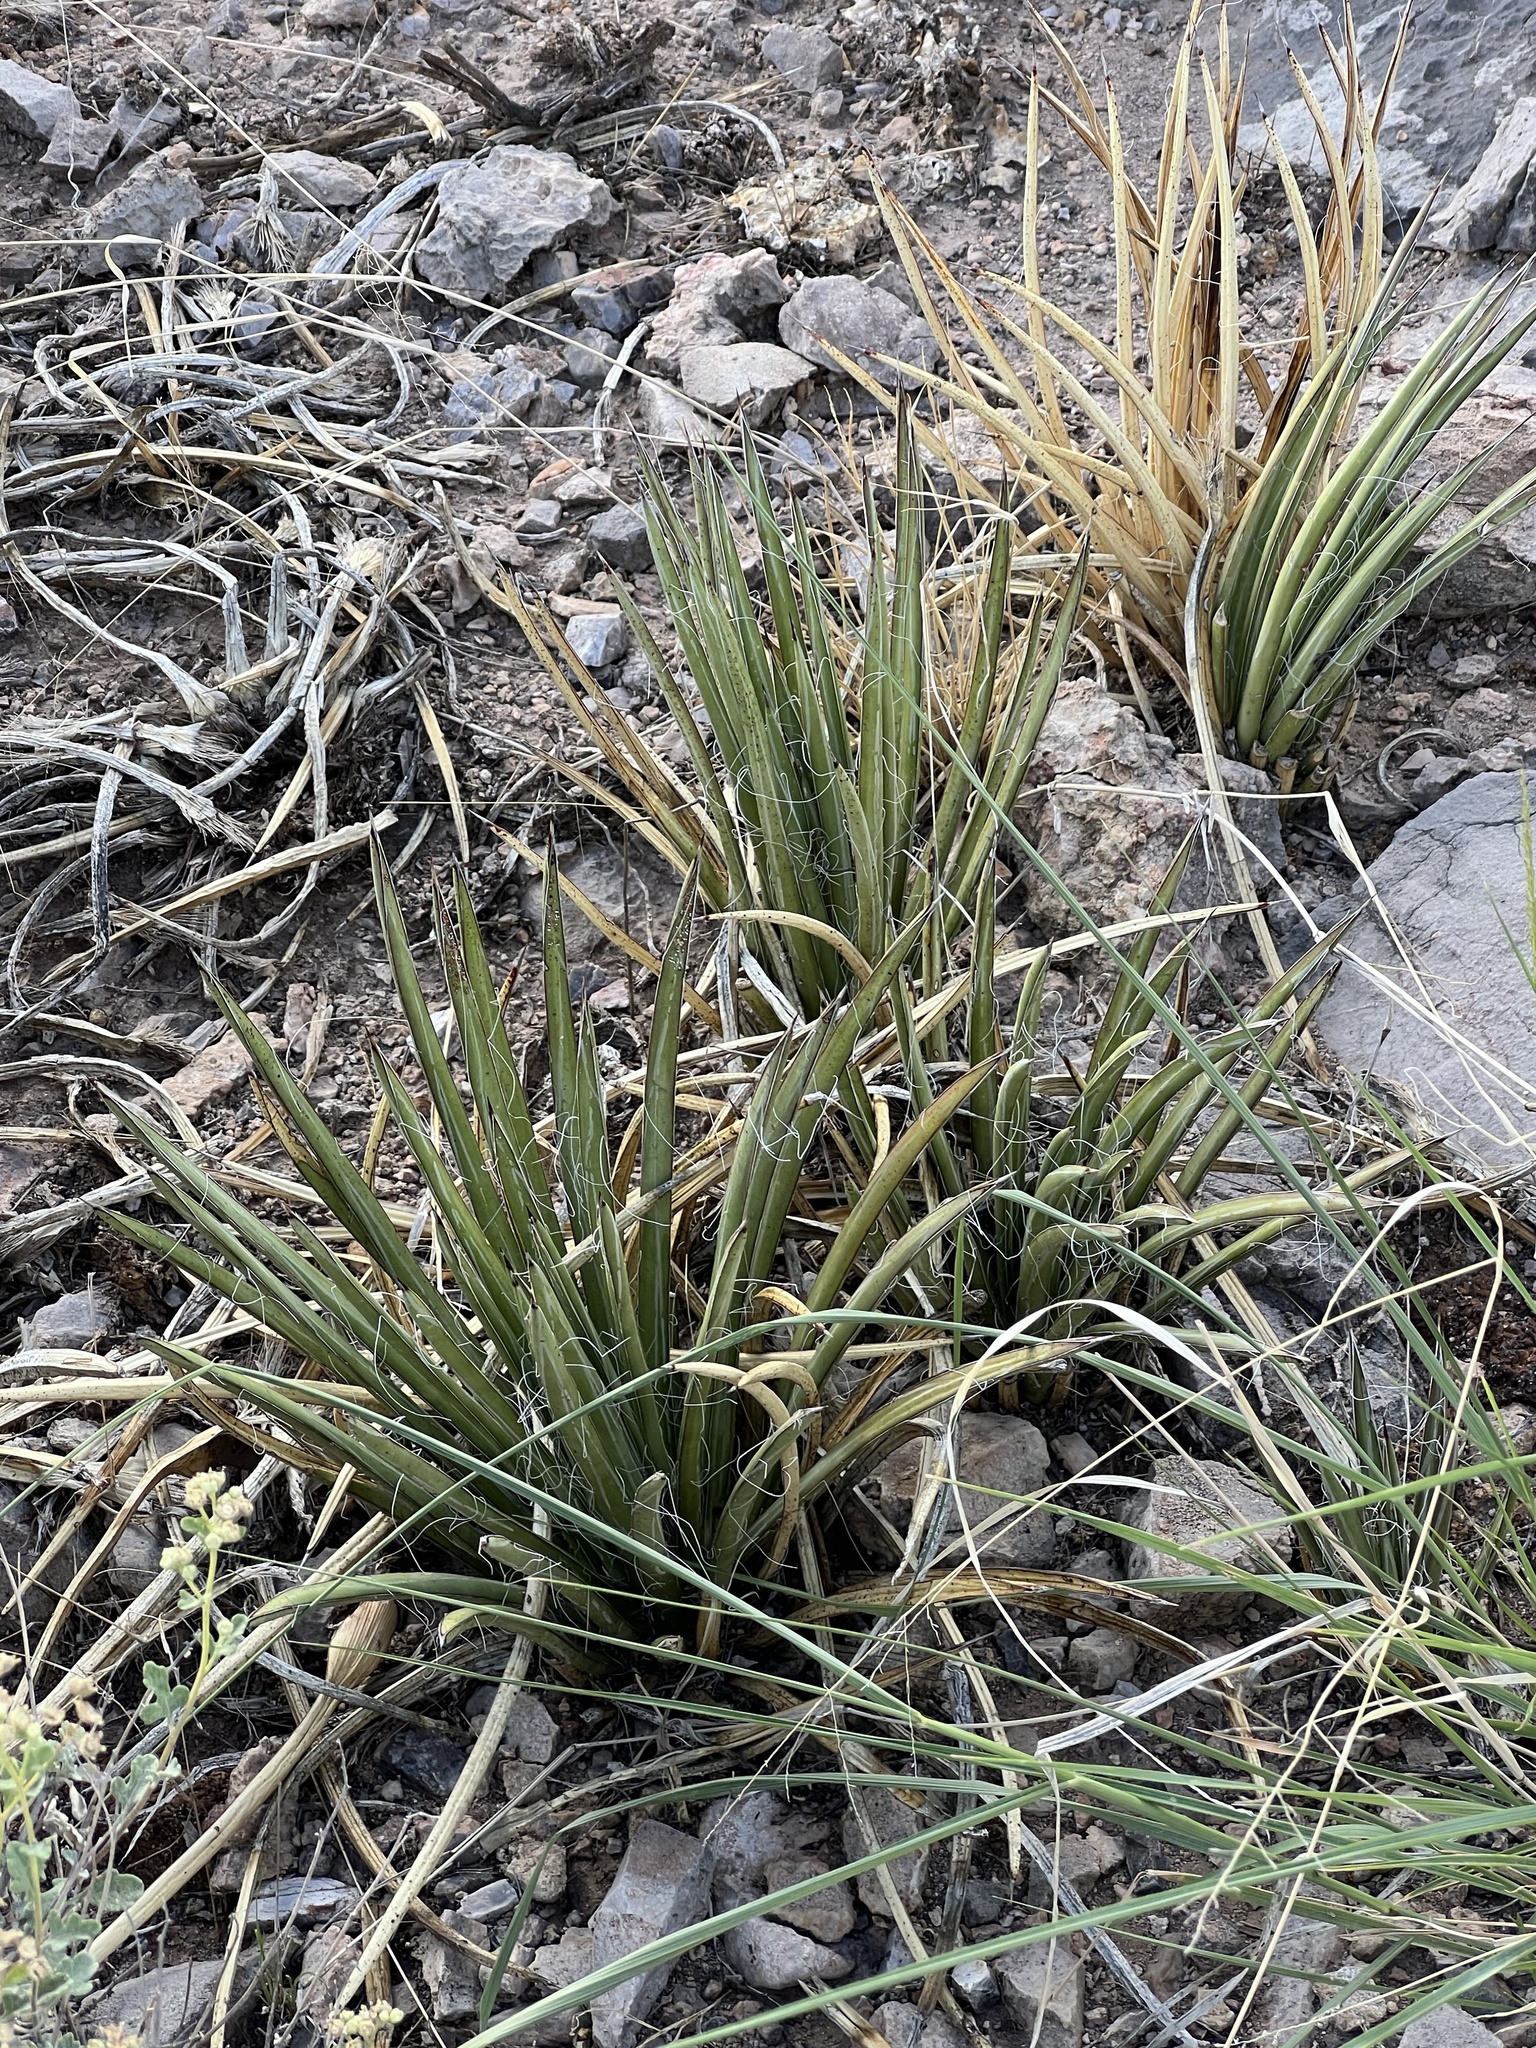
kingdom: Plantae
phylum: Tracheophyta
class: Liliopsida
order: Asparagales
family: Asparagaceae
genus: Agave
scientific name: Agave schottii
